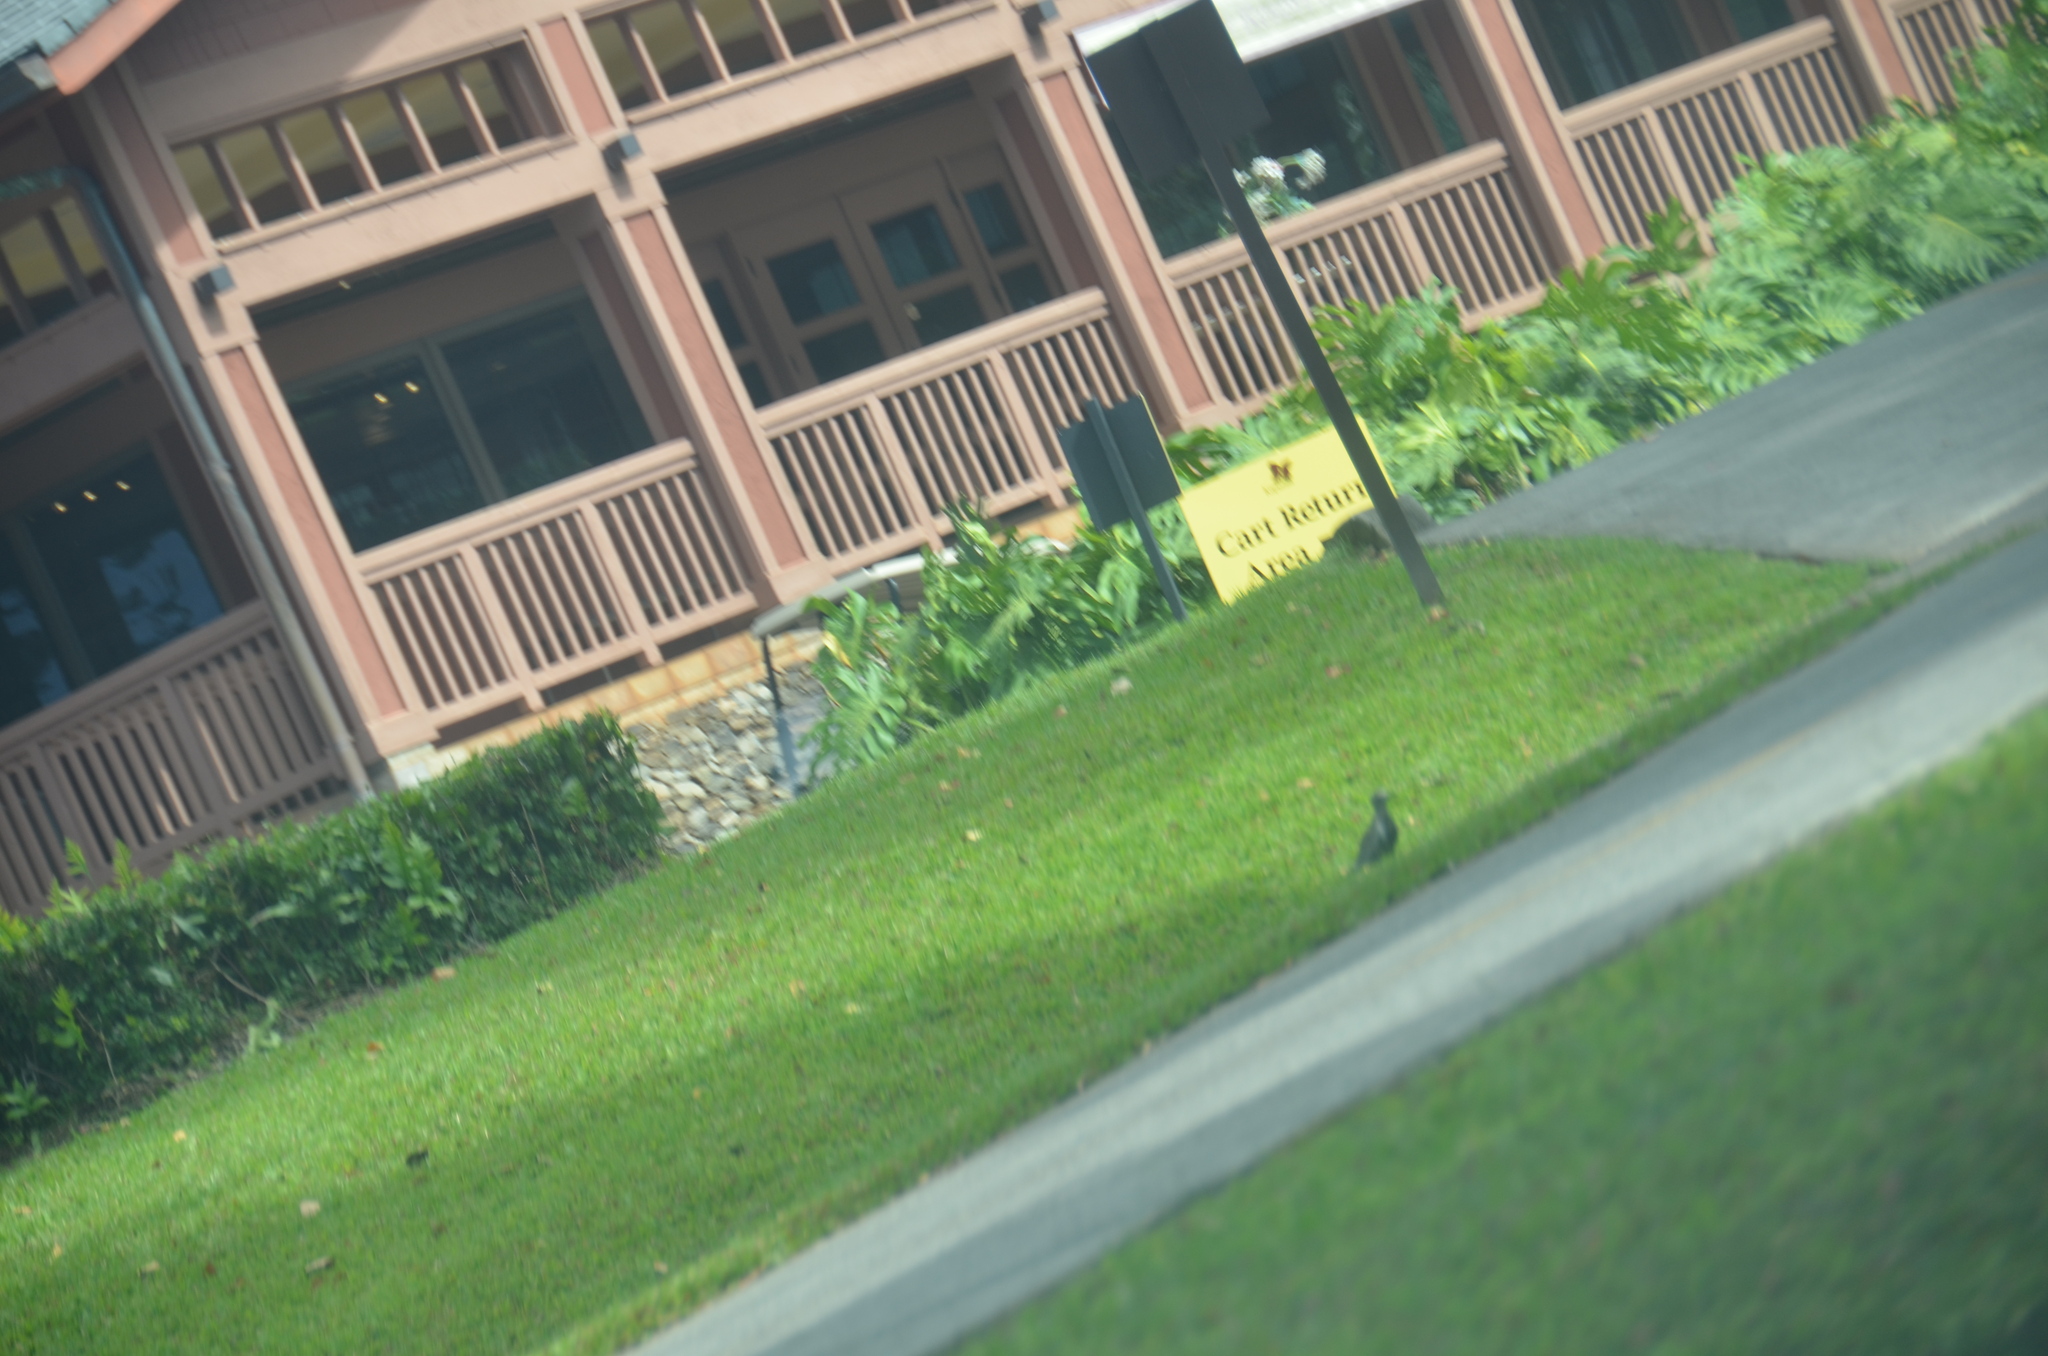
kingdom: Animalia
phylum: Chordata
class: Aves
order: Charadriiformes
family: Charadriidae
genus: Pluvialis
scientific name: Pluvialis fulva
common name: Pacific golden plover
